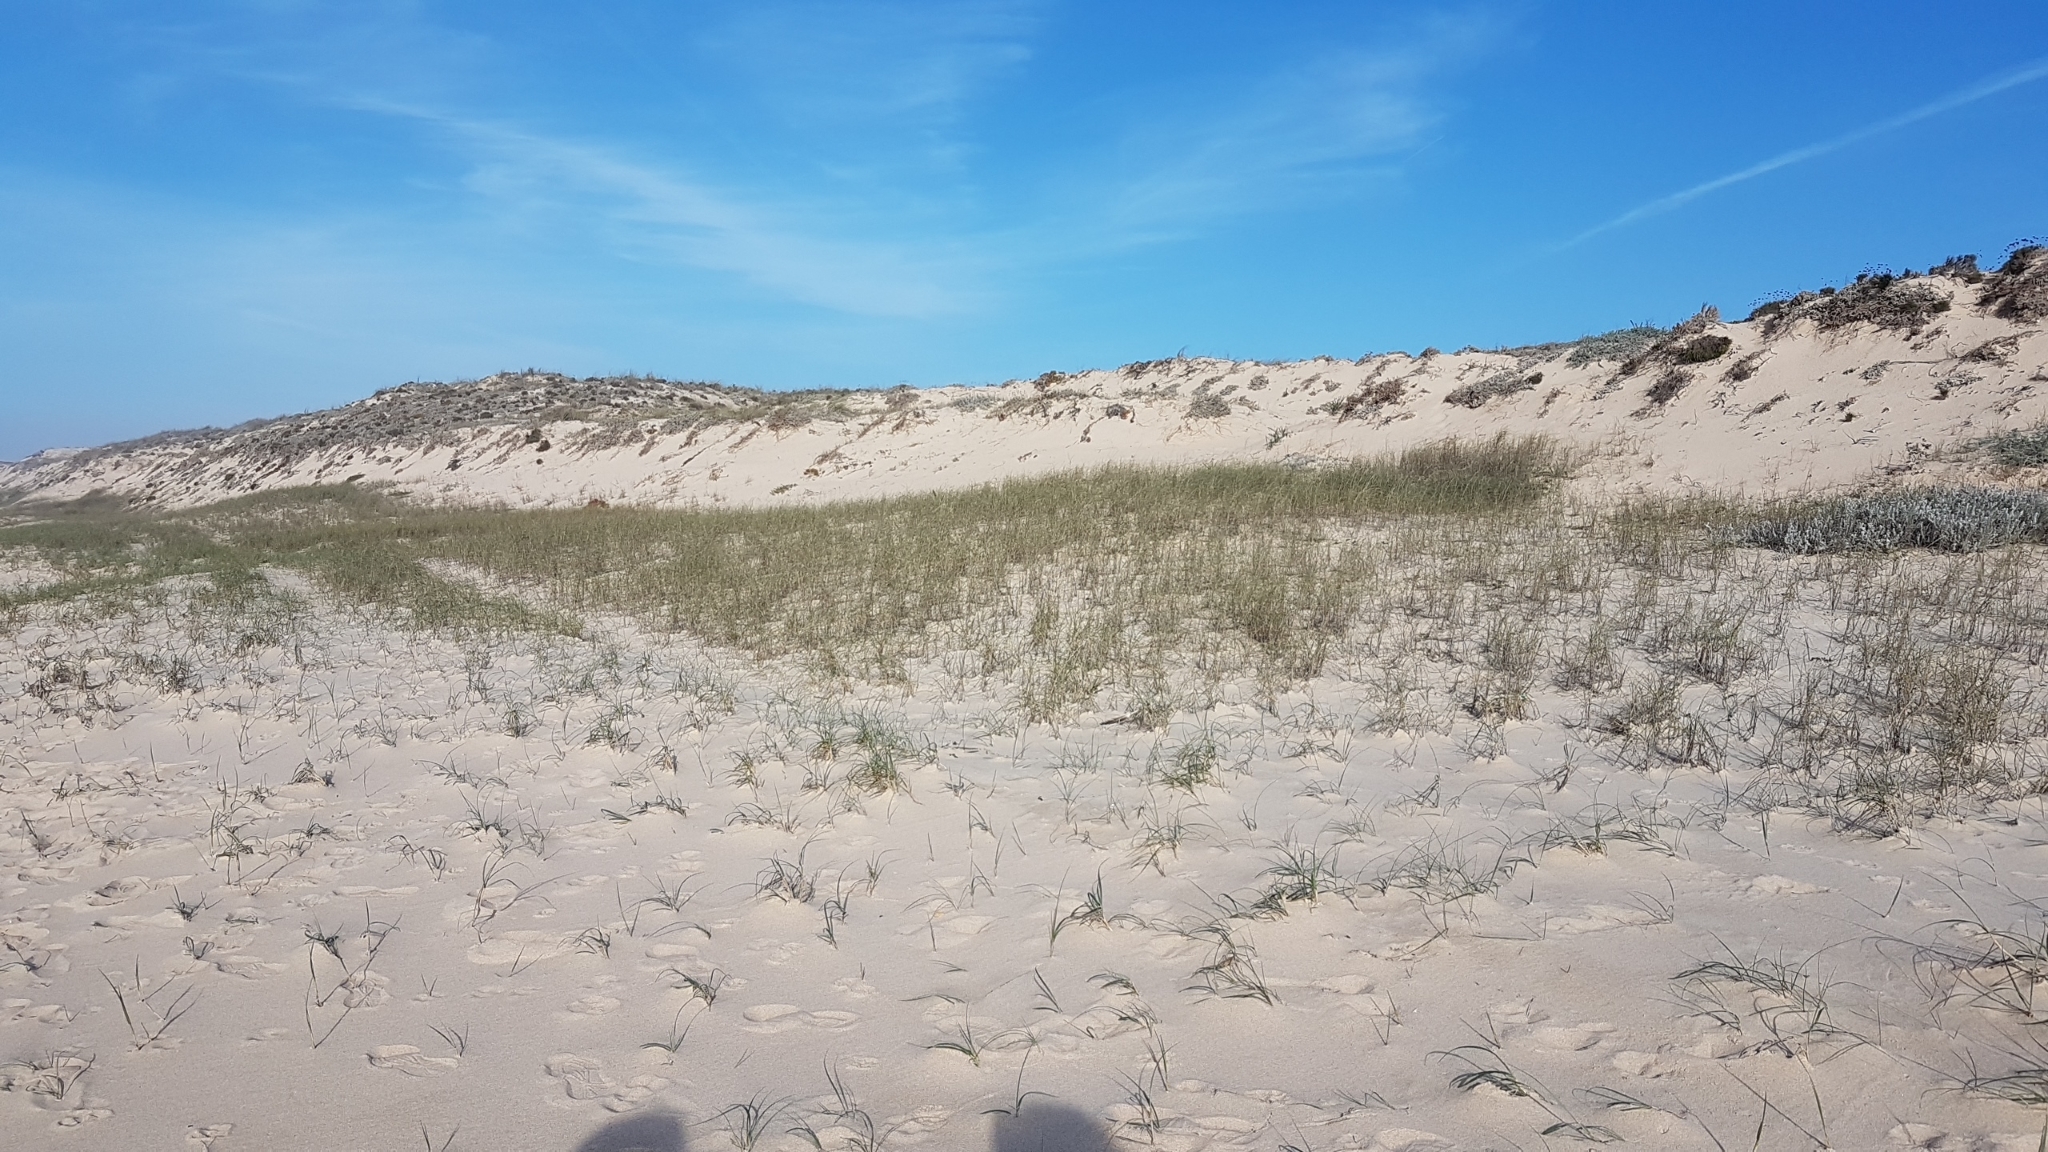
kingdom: Plantae
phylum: Tracheophyta
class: Liliopsida
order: Poales
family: Poaceae
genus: Calamagrostis
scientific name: Calamagrostis arenaria
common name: European beachgrass
